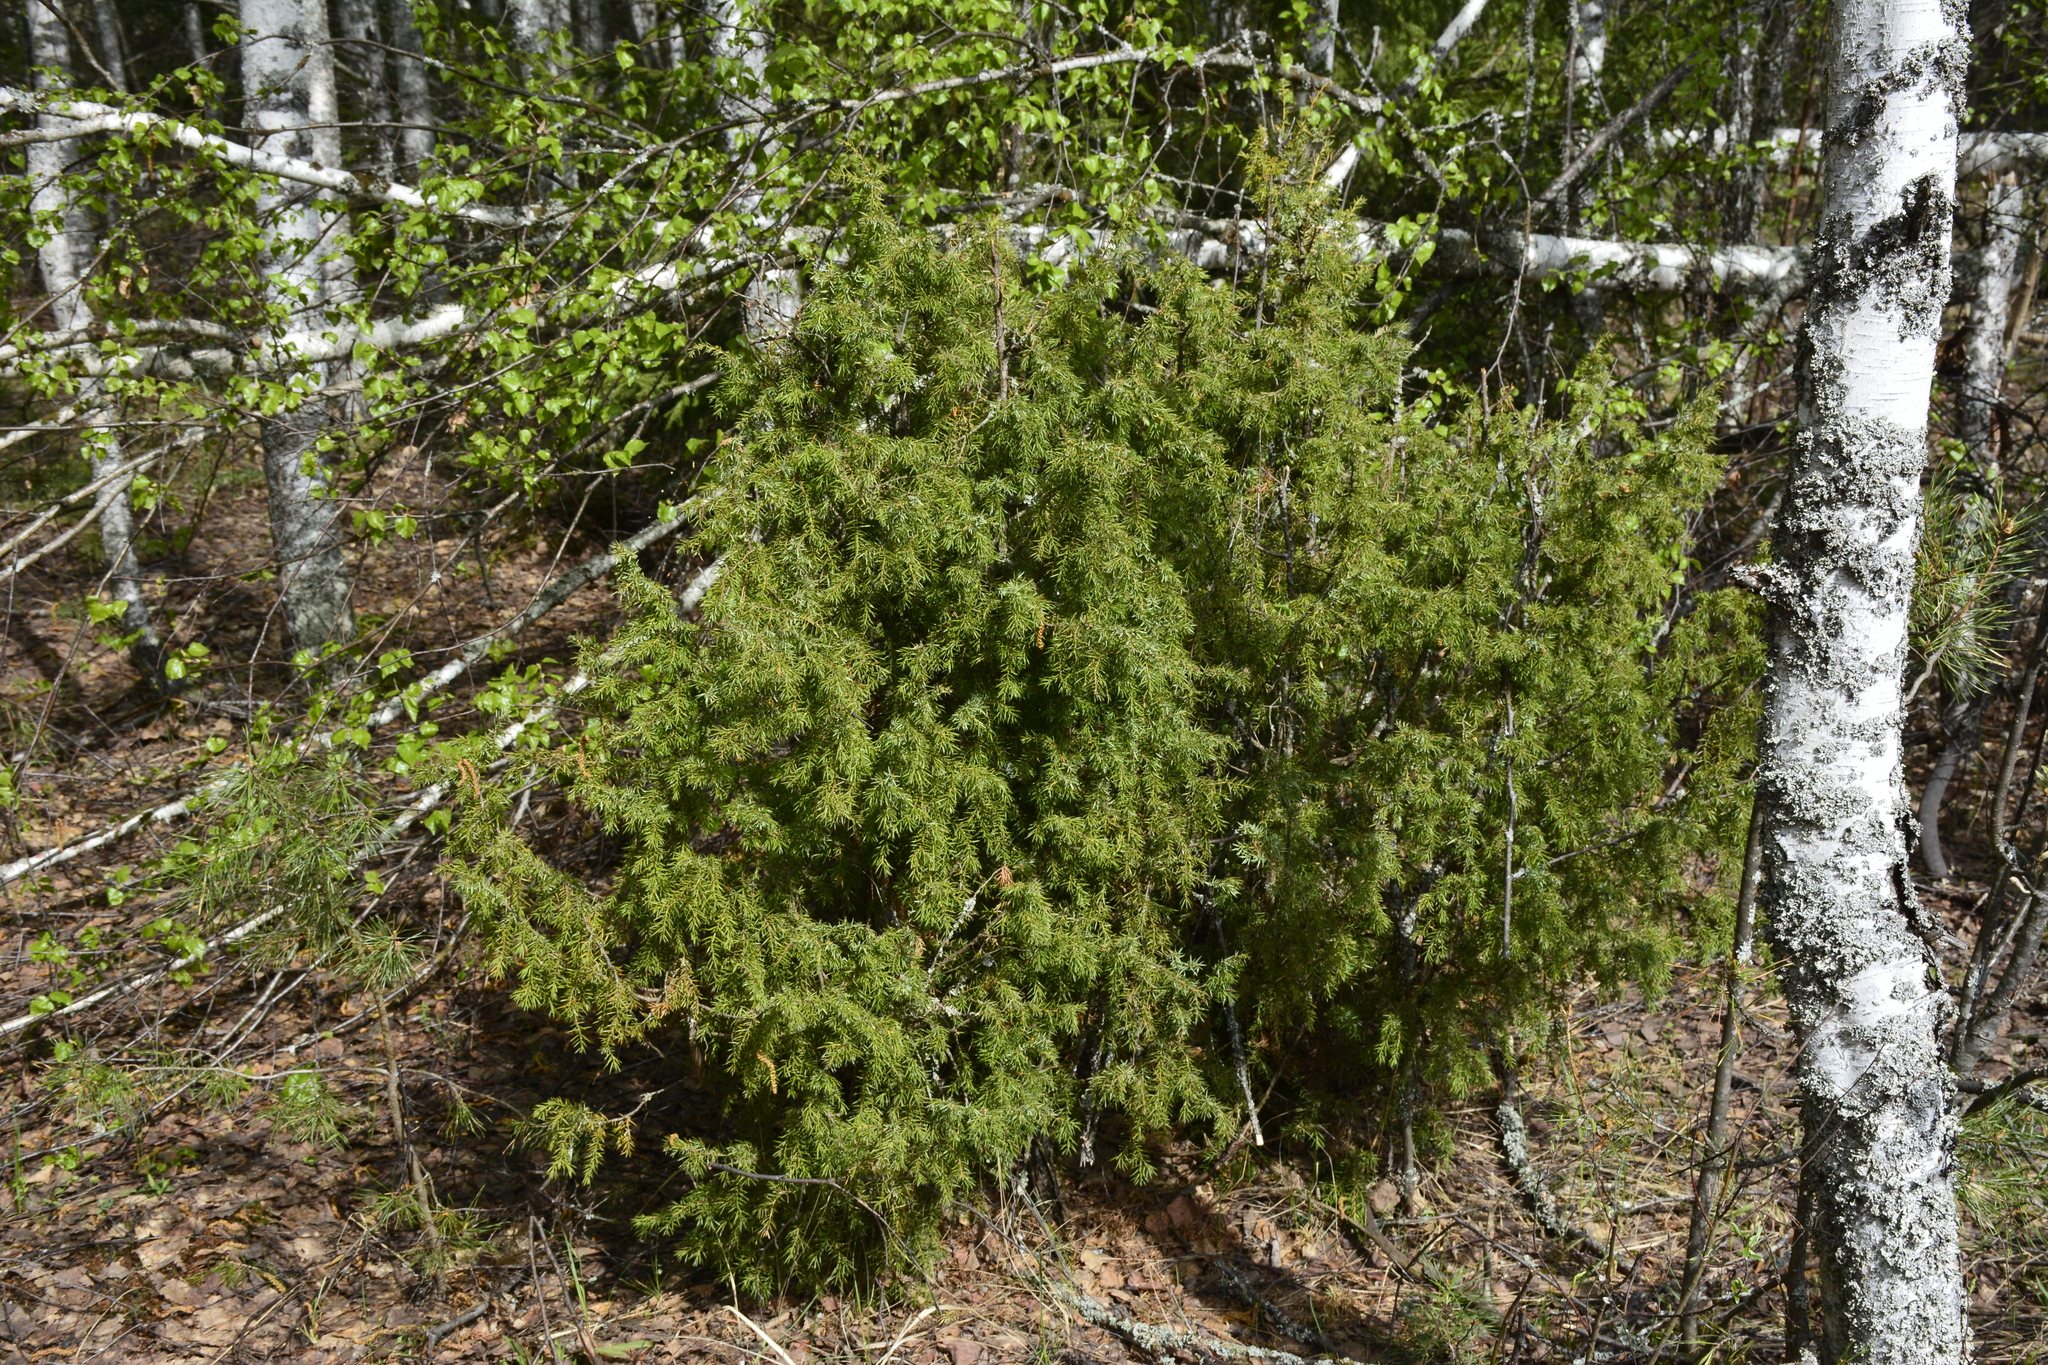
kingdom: Plantae
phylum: Tracheophyta
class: Pinopsida
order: Pinales
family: Cupressaceae
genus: Juniperus
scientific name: Juniperus communis
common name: Common juniper
